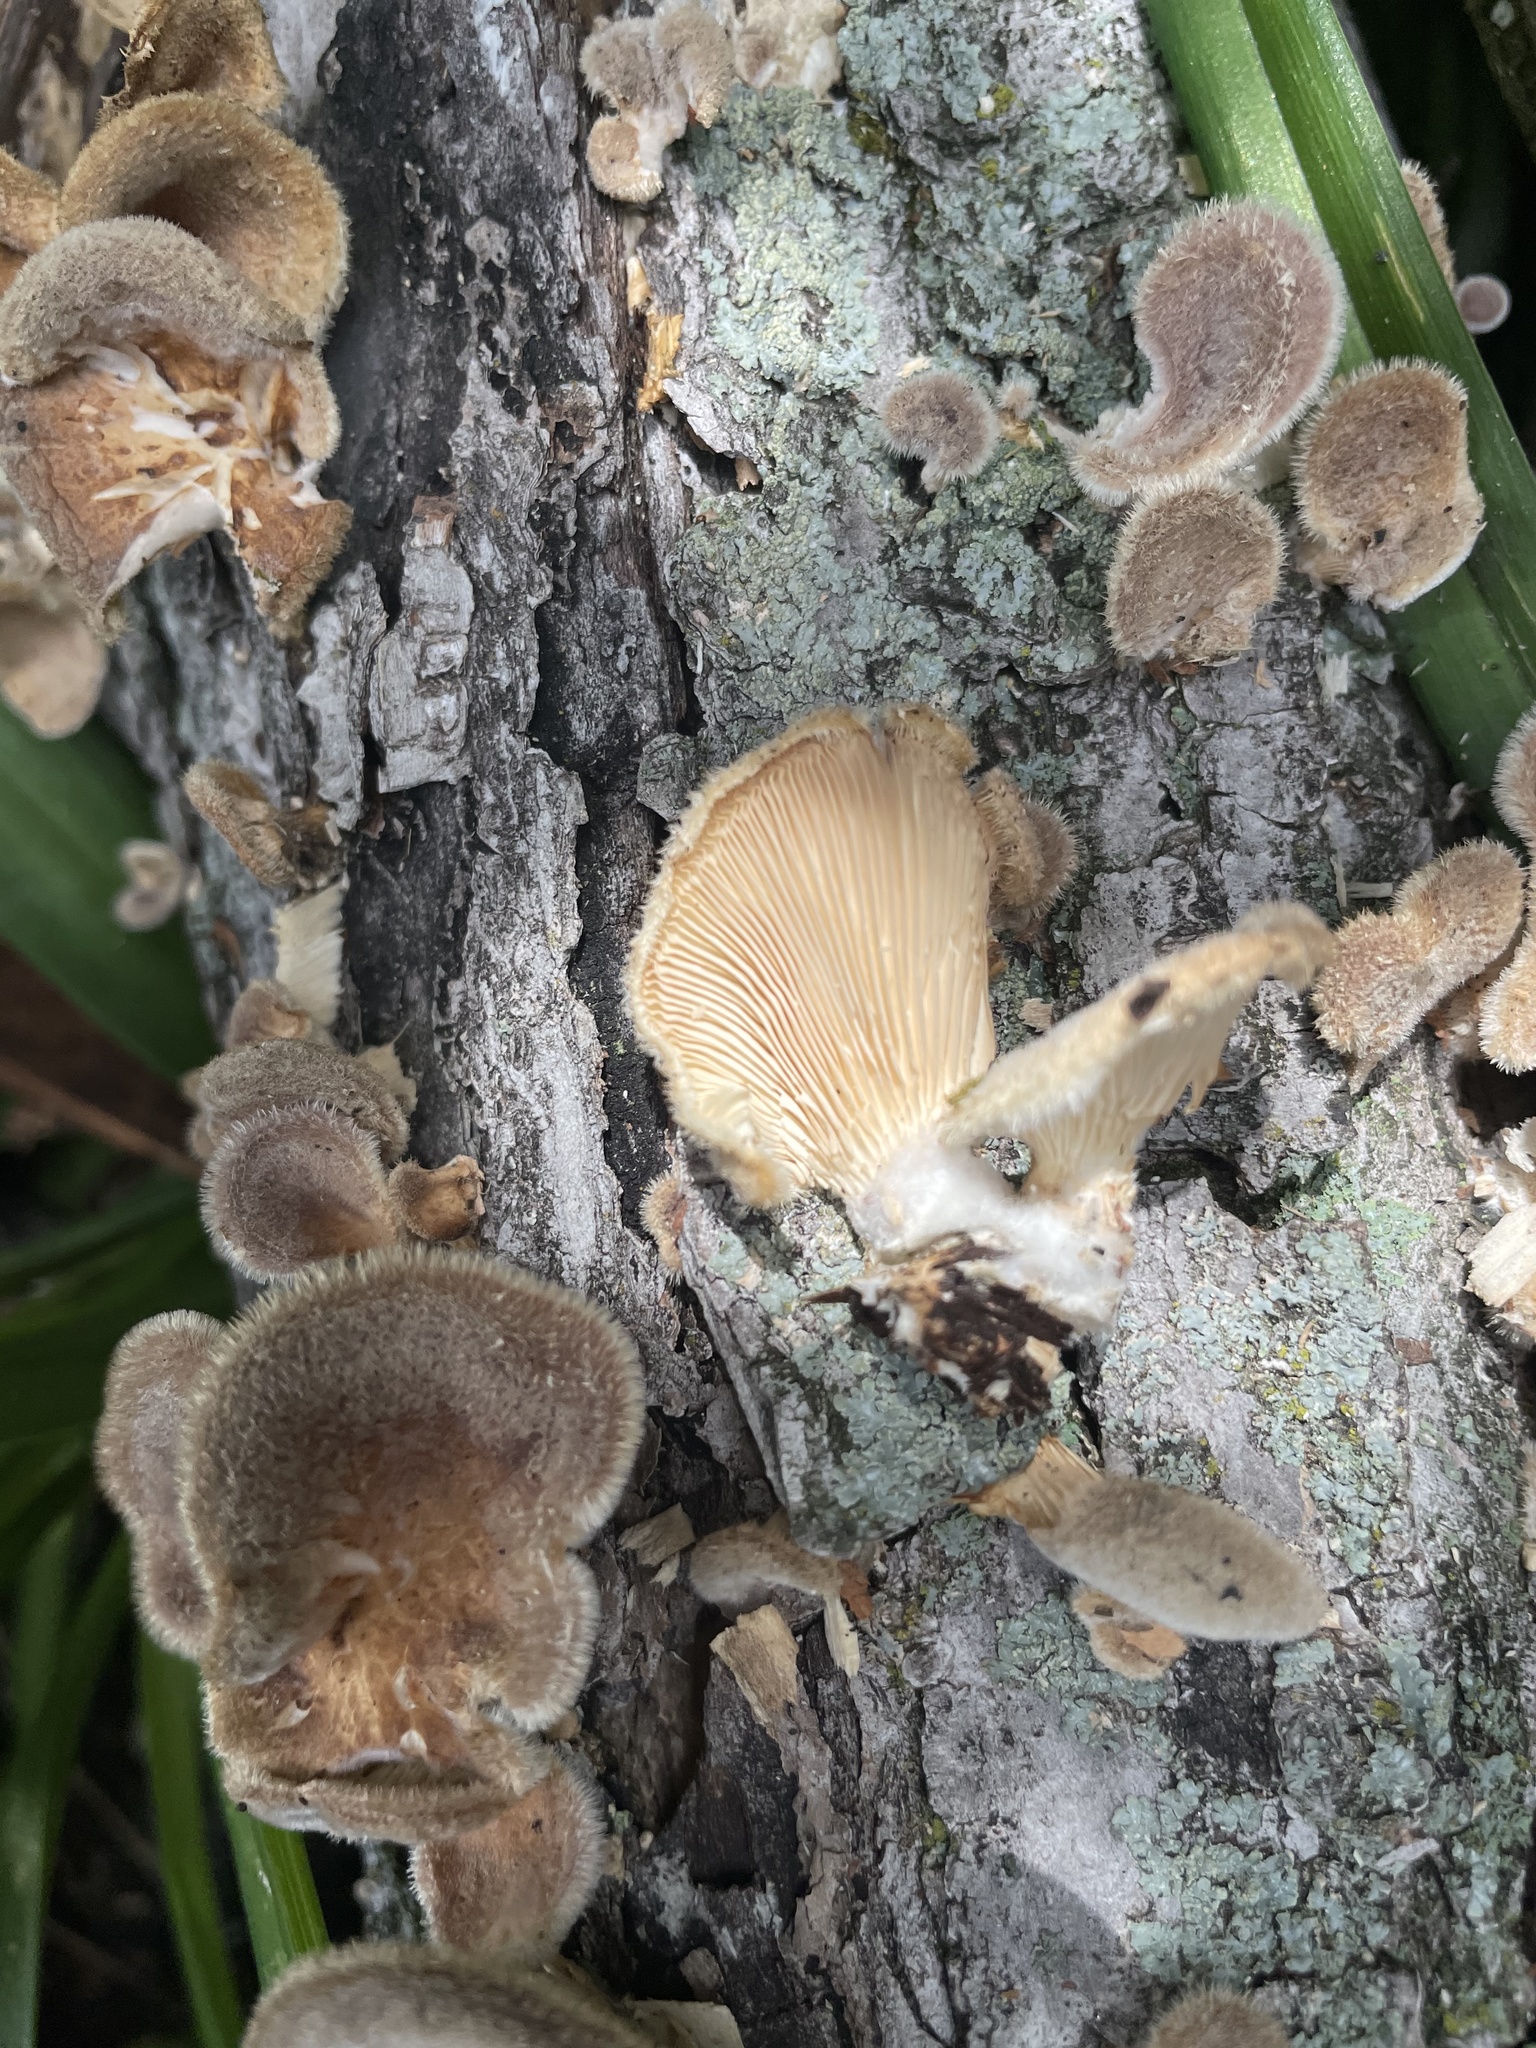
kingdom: Fungi
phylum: Basidiomycota
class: Agaricomycetes
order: Polyporales
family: Panaceae
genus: Panus
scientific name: Panus neostrigosus
